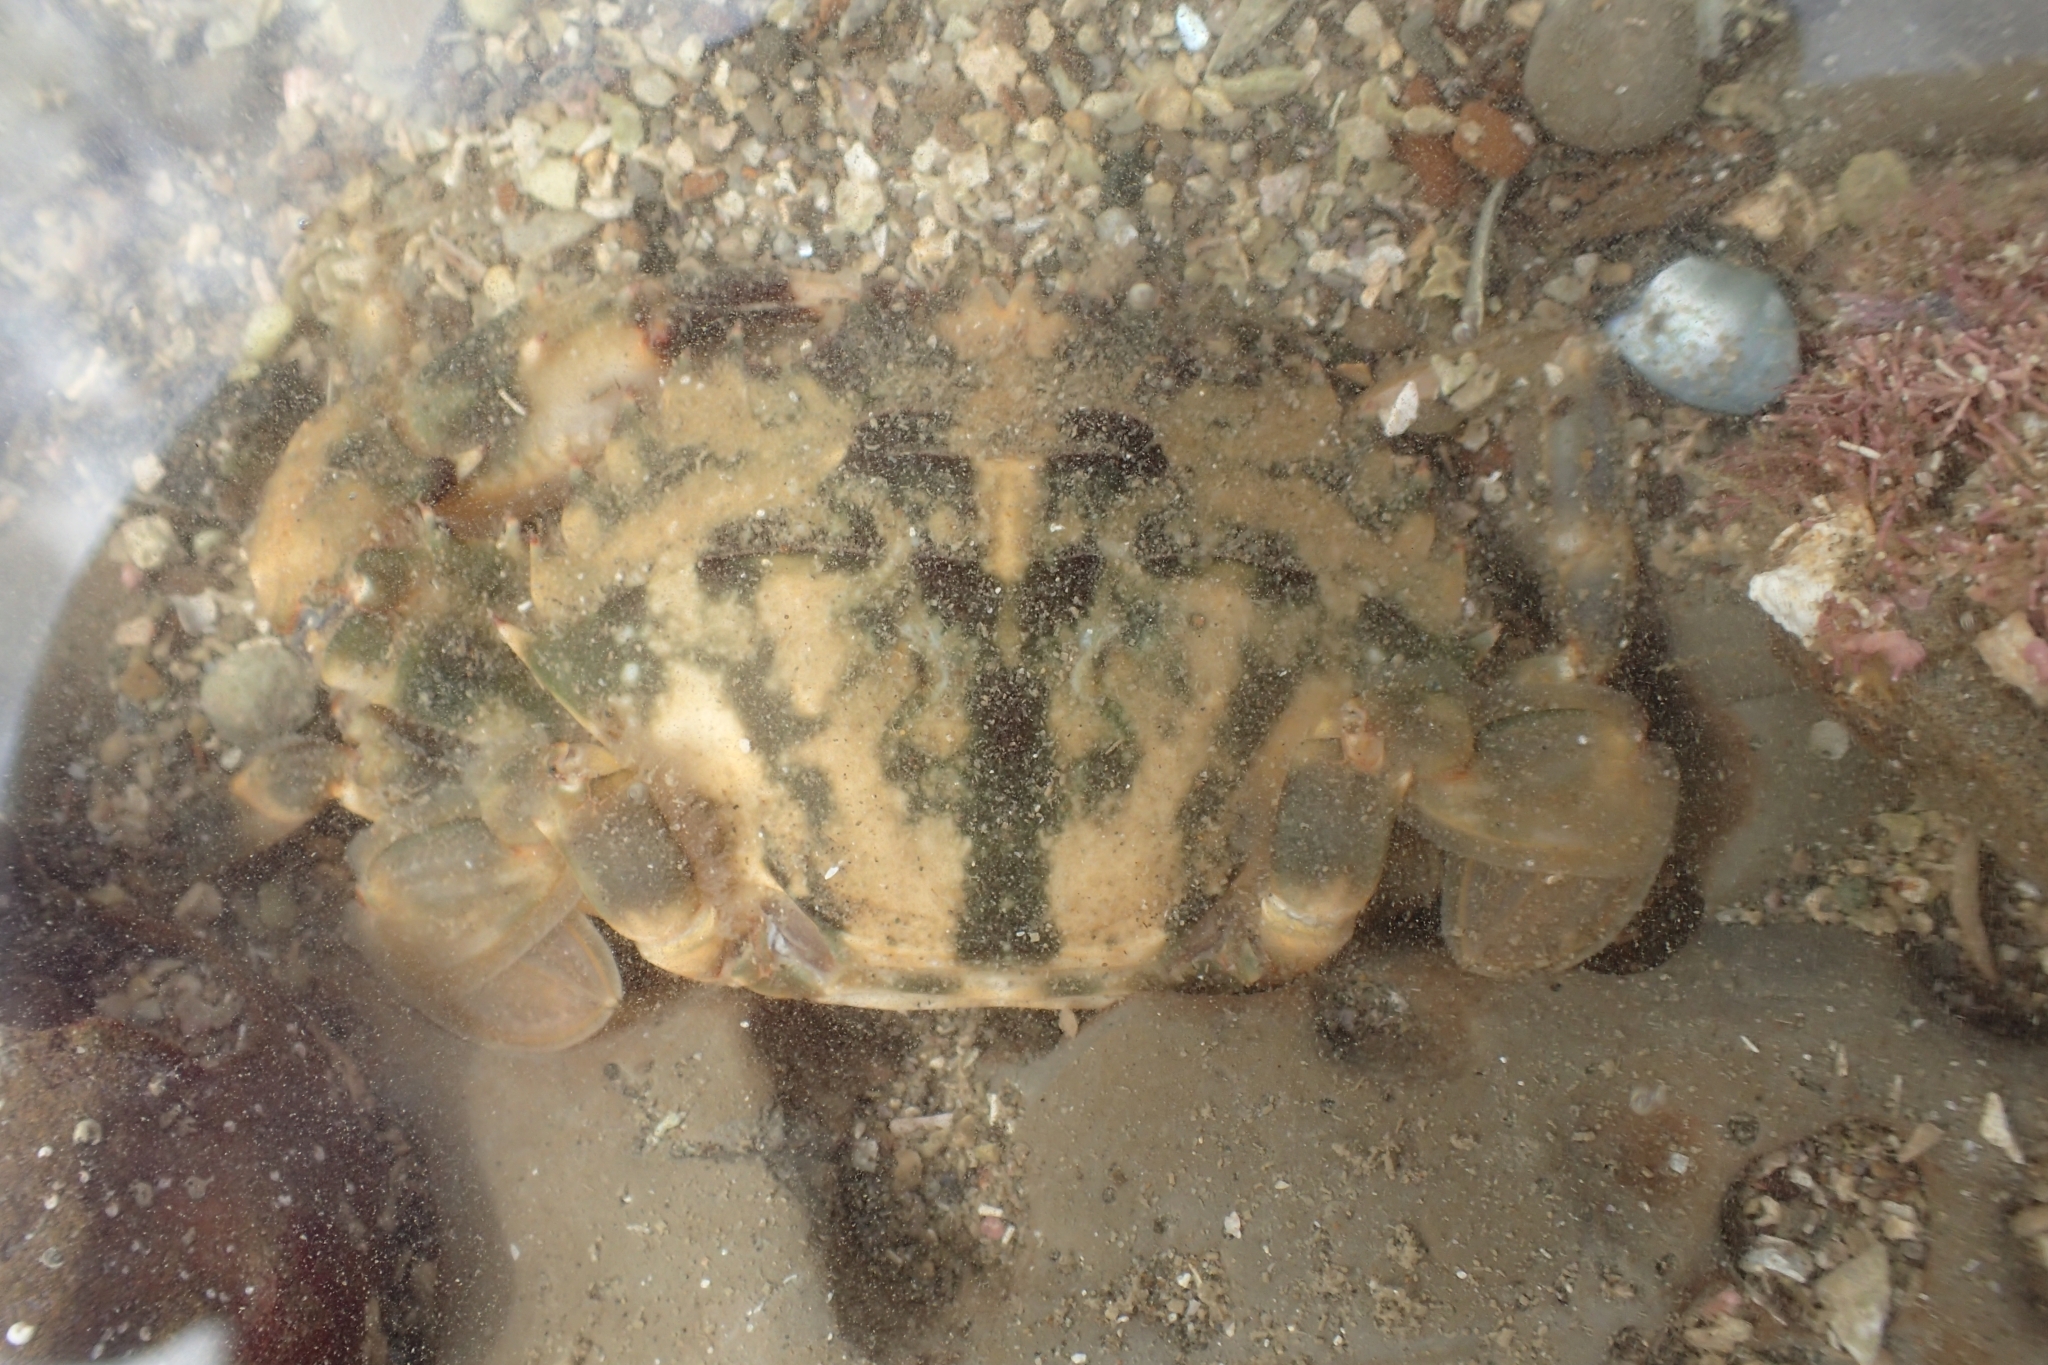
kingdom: Animalia
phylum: Arthropoda
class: Malacostraca
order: Decapoda
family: Portunidae
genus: Charybdis
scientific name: Charybdis japonica
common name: Asian paddle crab
